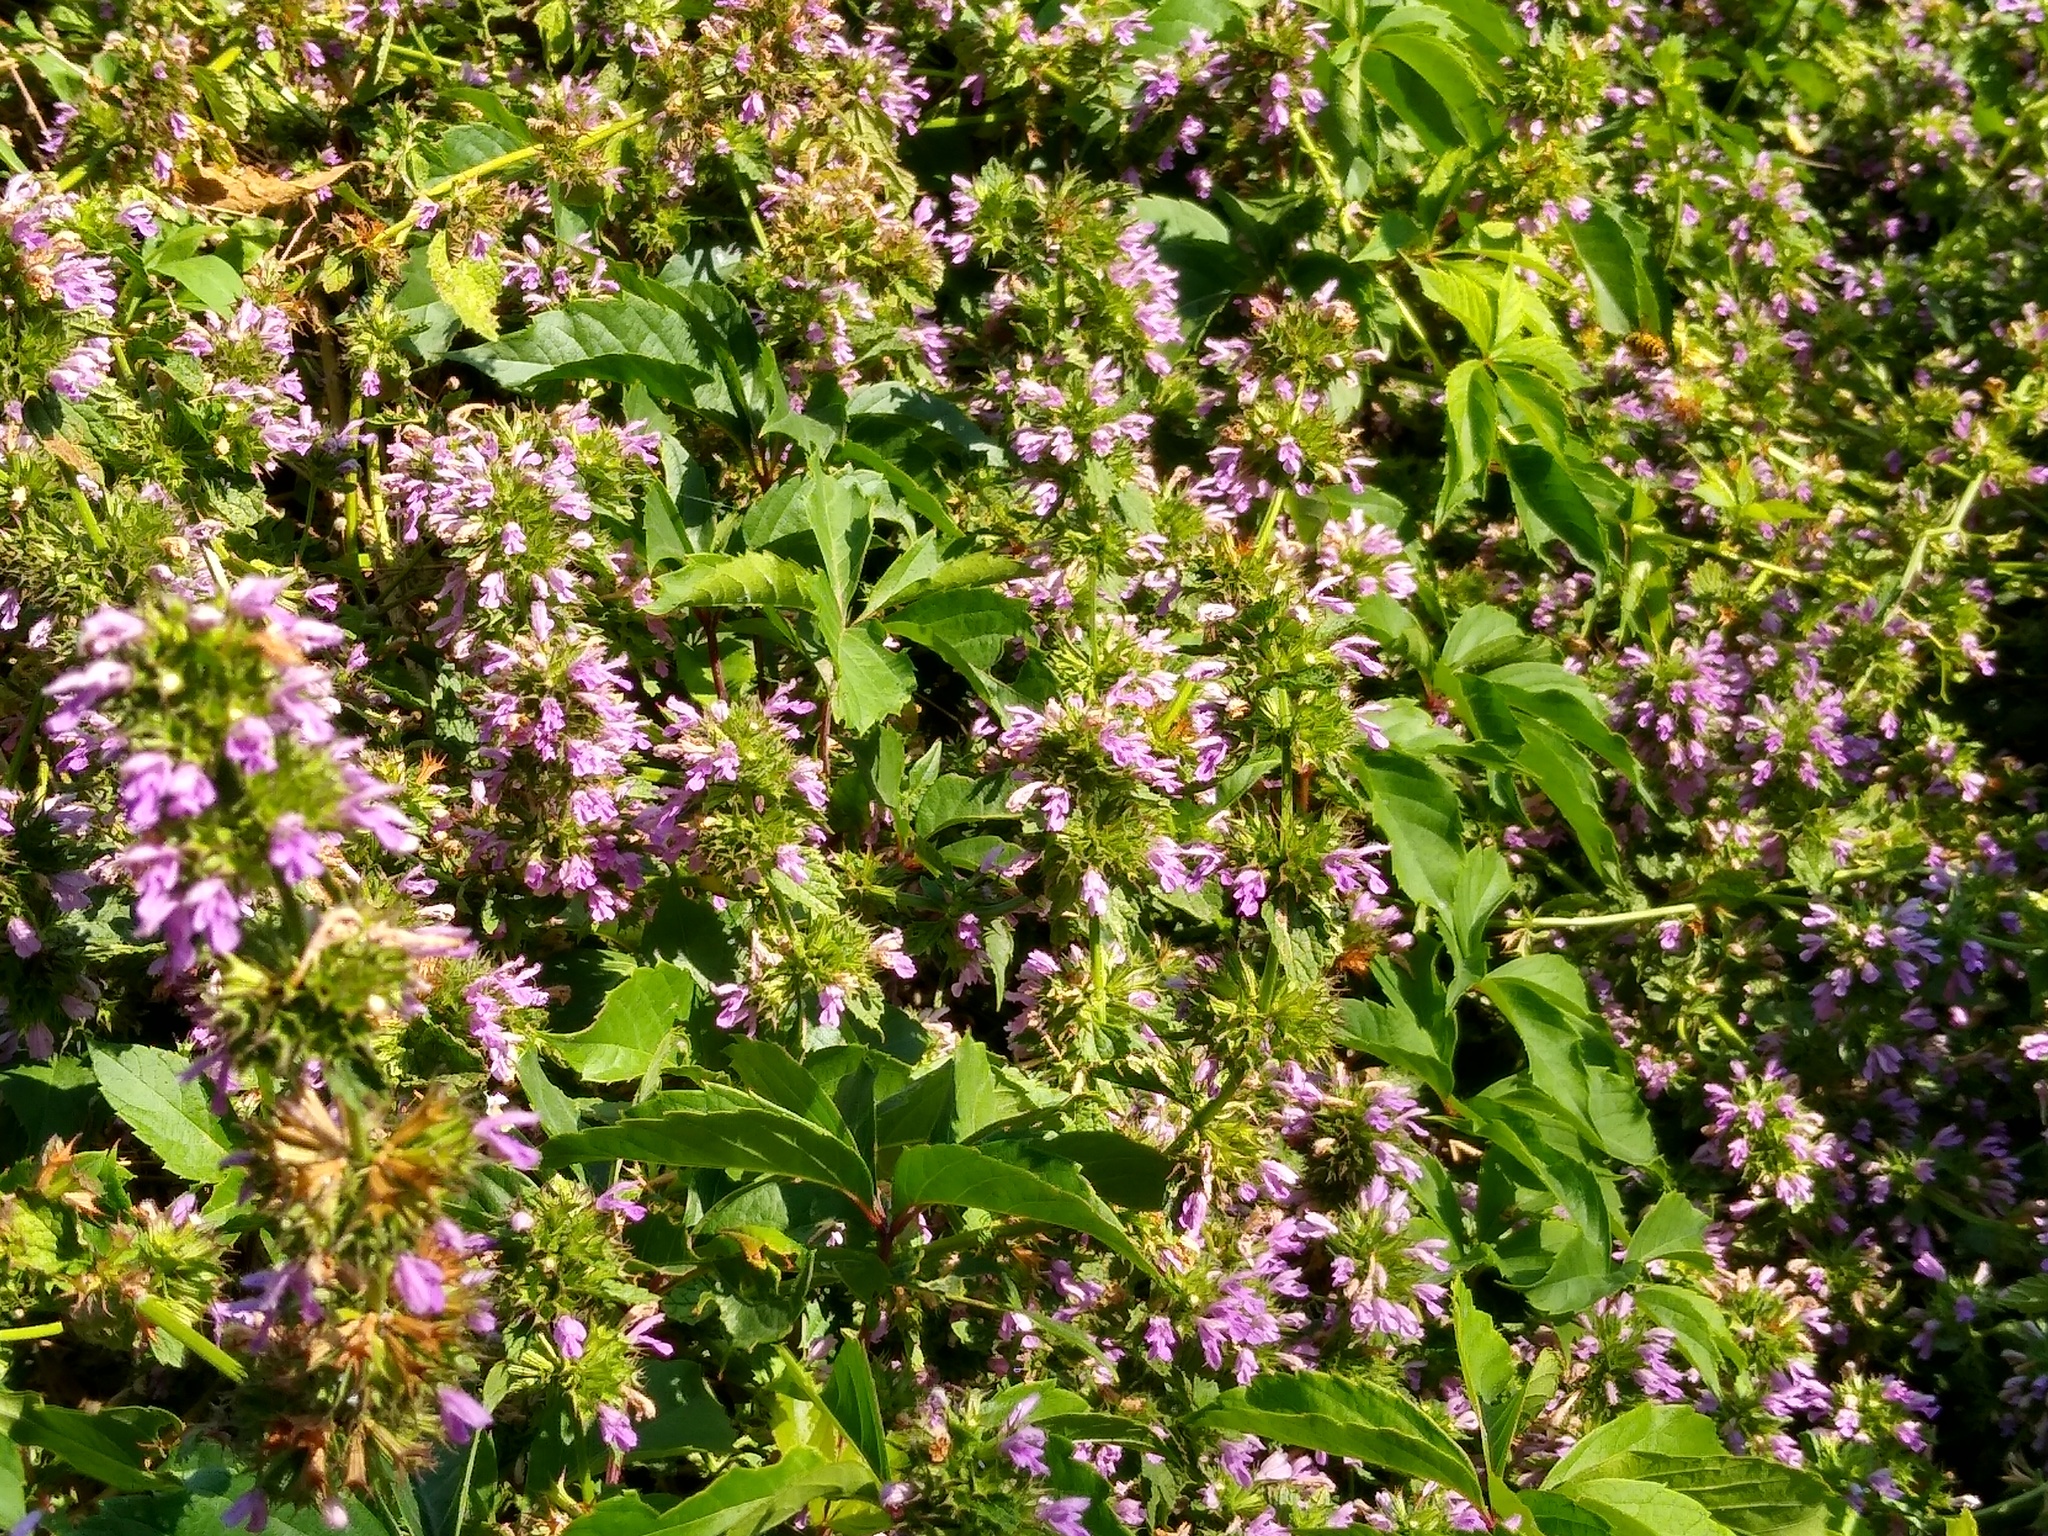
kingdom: Plantae
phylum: Tracheophyta
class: Magnoliopsida
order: Lamiales
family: Lamiaceae
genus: Ballota
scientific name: Ballota nigra
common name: Black horehound
